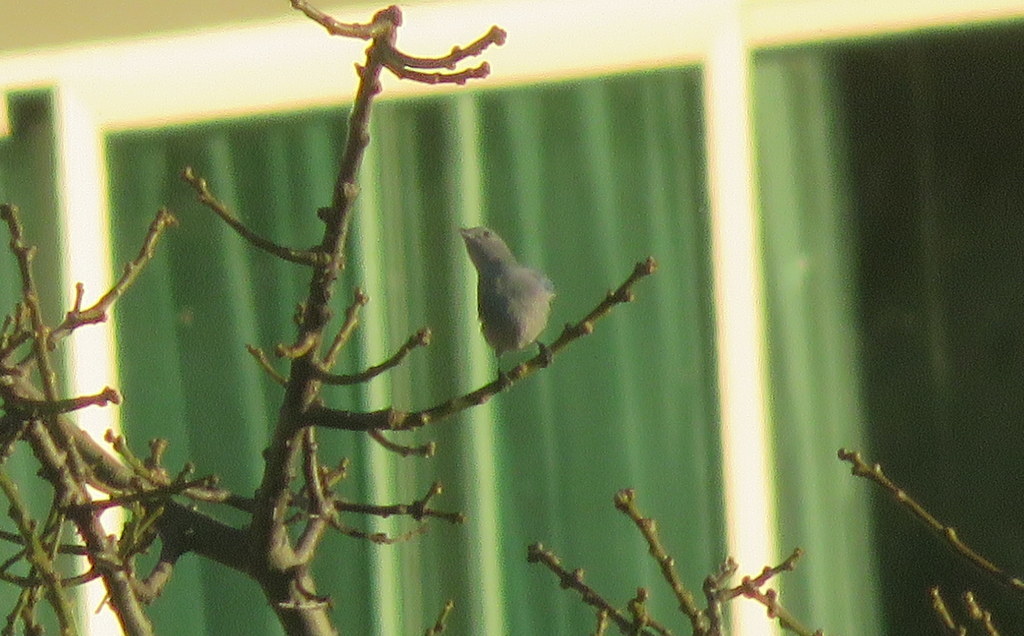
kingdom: Animalia
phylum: Chordata
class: Aves
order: Passeriformes
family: Thraupidae
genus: Thraupis
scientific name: Thraupis sayaca
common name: Sayaca tanager
